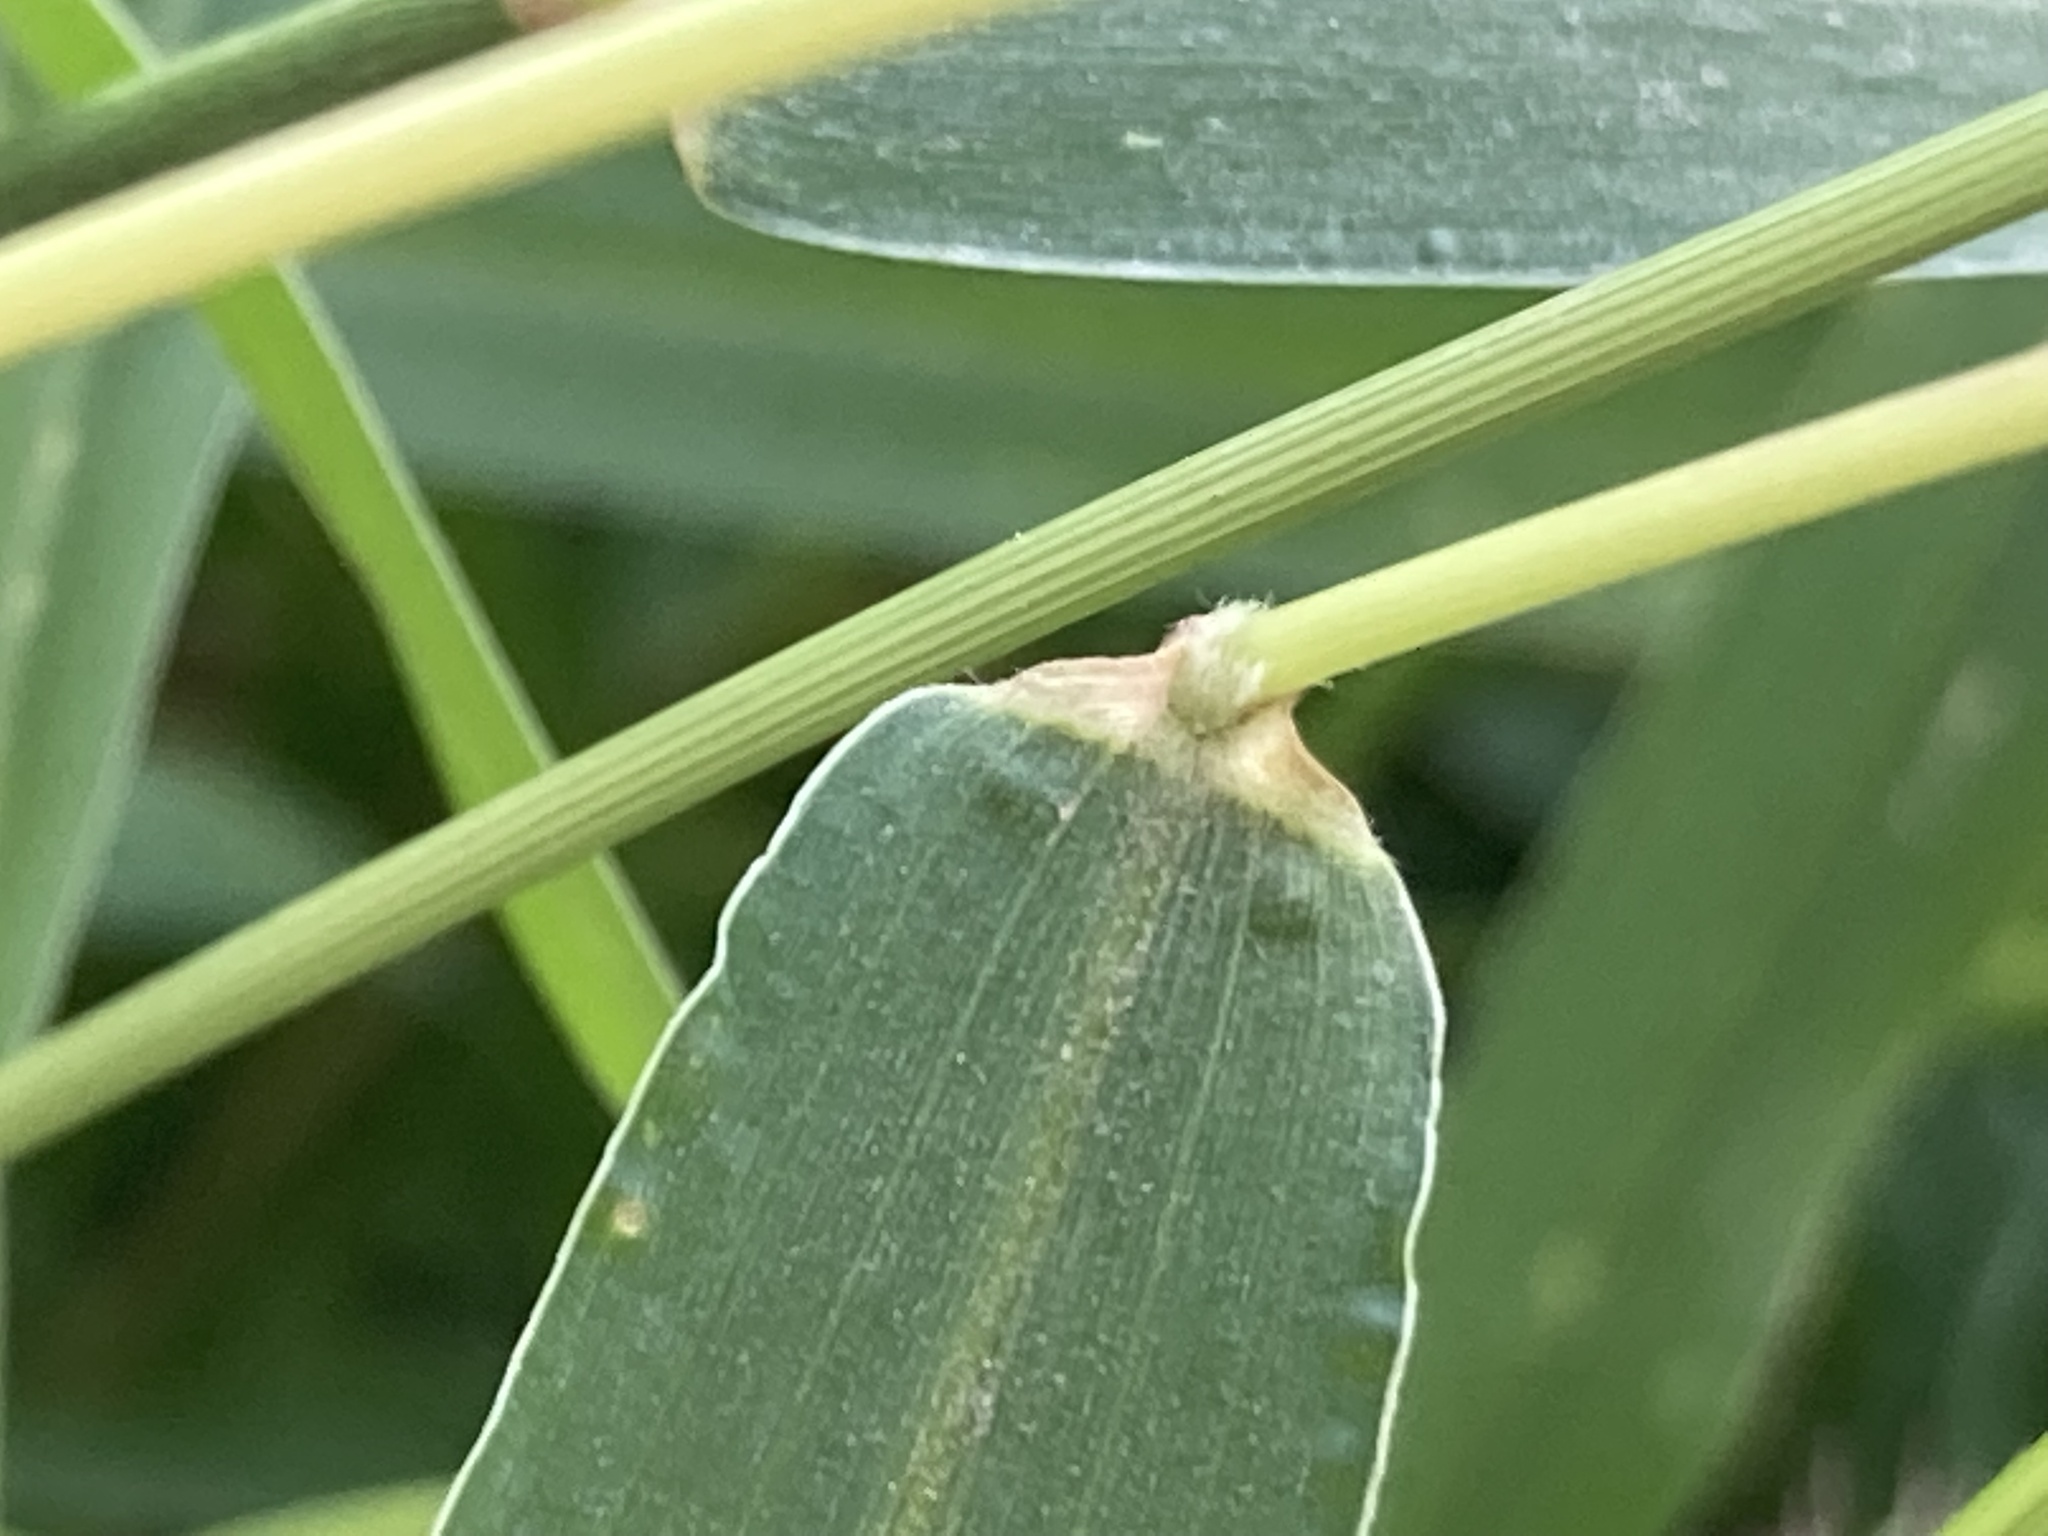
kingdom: Plantae
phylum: Tracheophyta
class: Liliopsida
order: Poales
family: Poaceae
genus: Setaria
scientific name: Setaria verticillata
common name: Hooked bristlegrass
